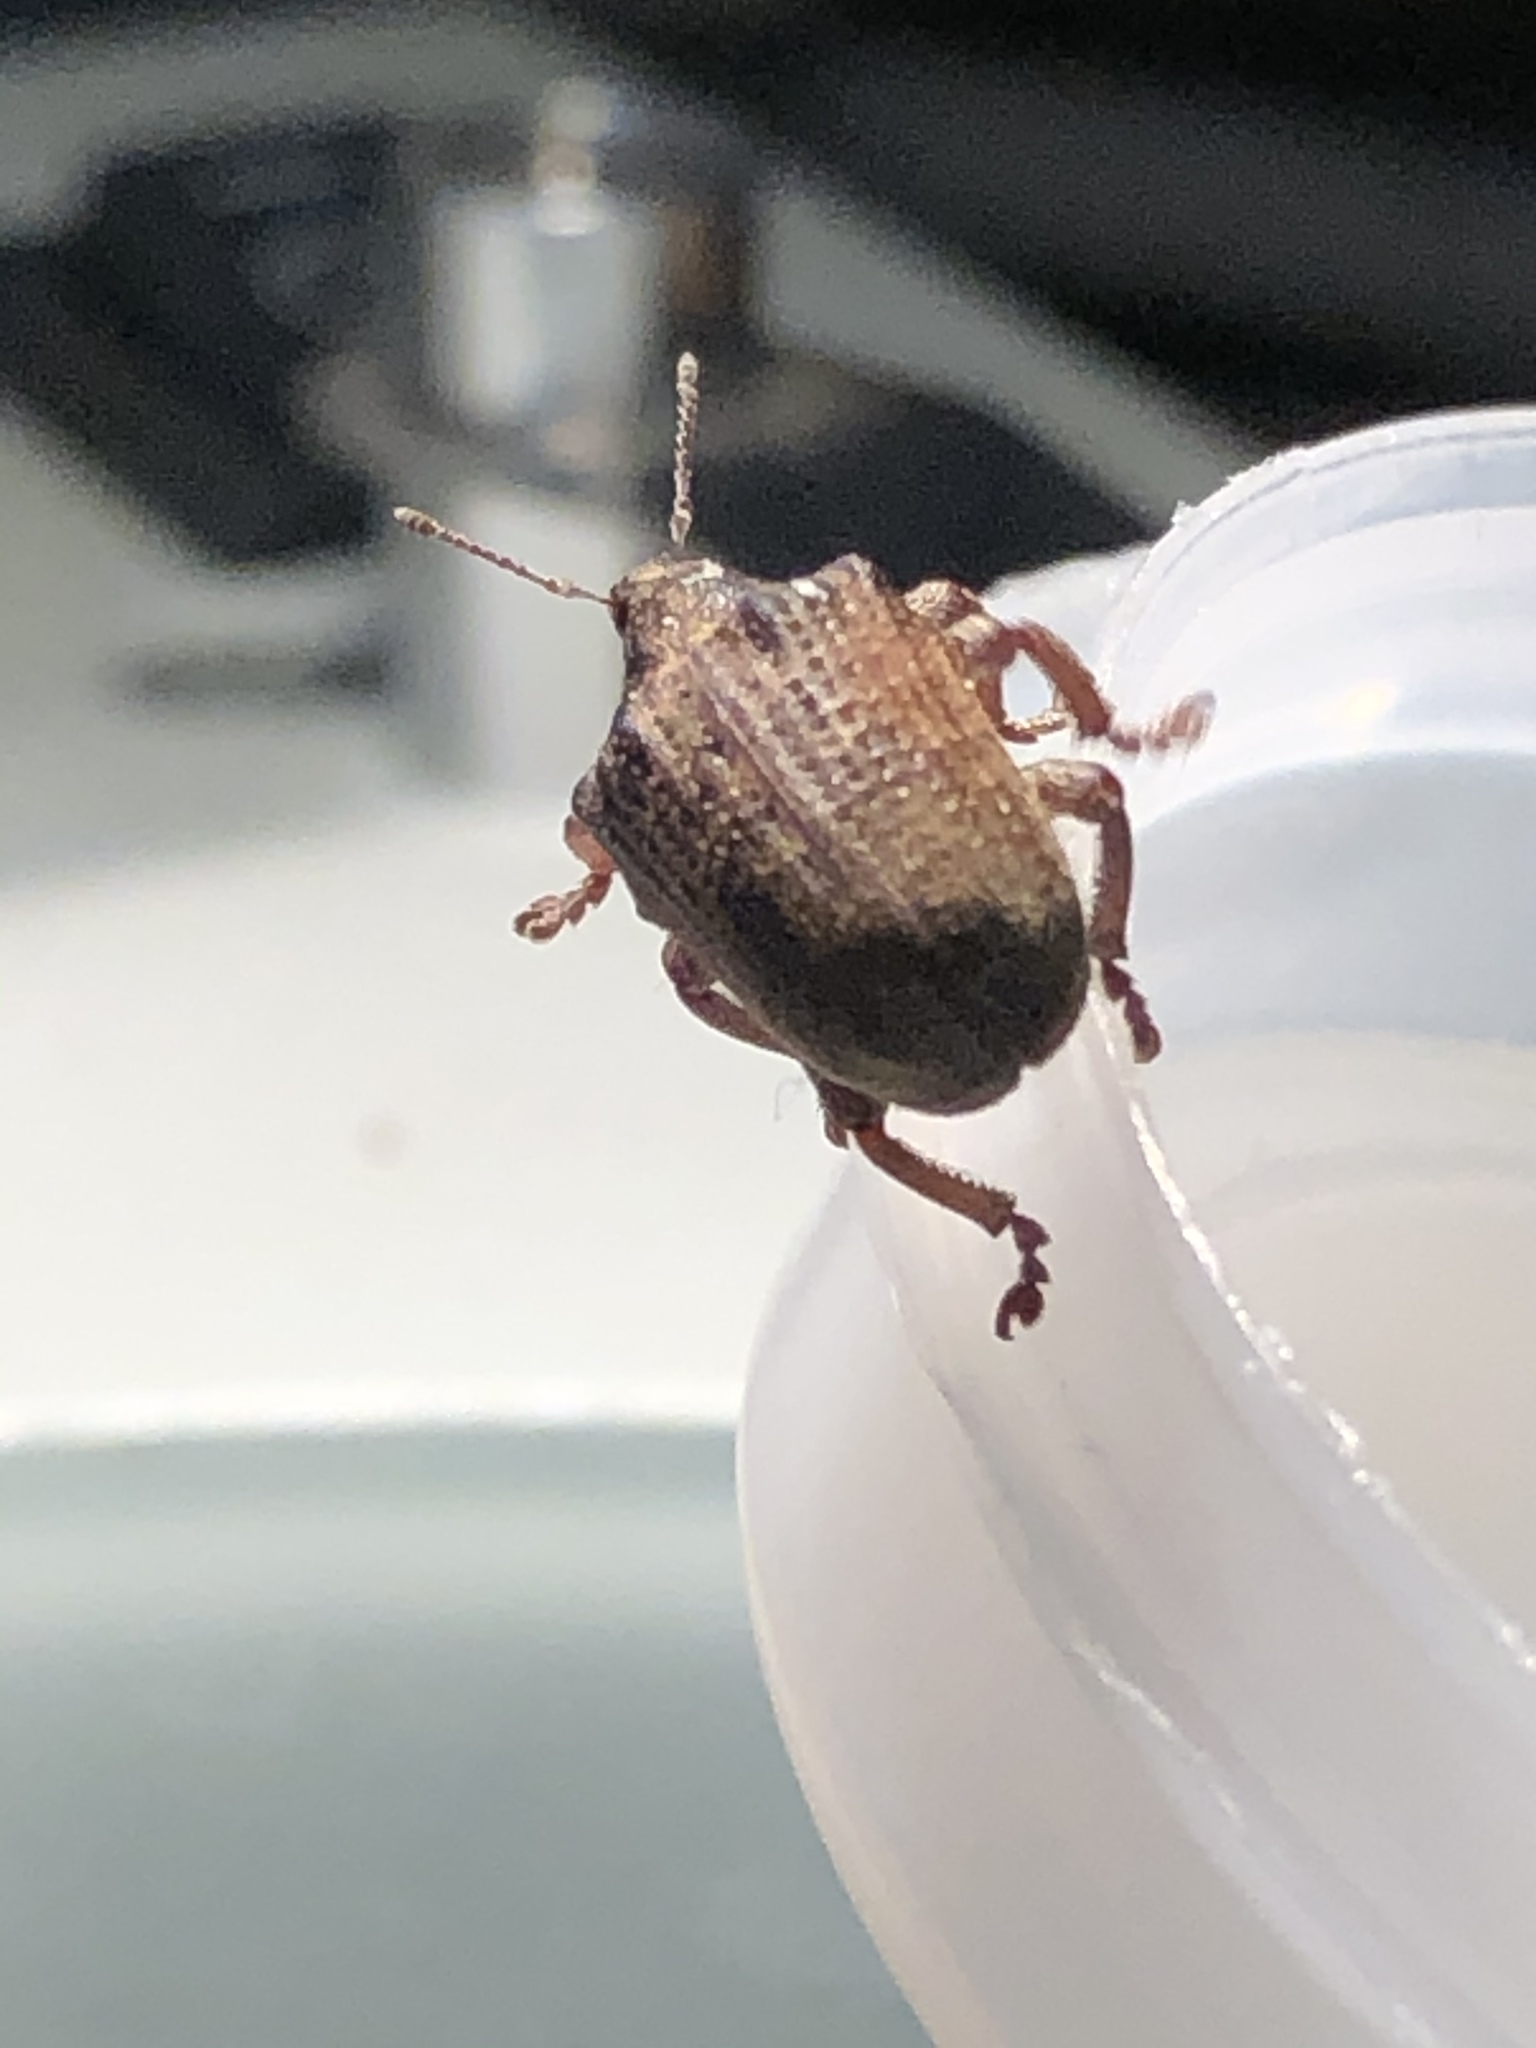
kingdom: Animalia
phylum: Arthropoda
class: Insecta
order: Coleoptera
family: Curculionidae
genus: Gonipterus
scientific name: Gonipterus platensis
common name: Eucalyptus snout beetle
